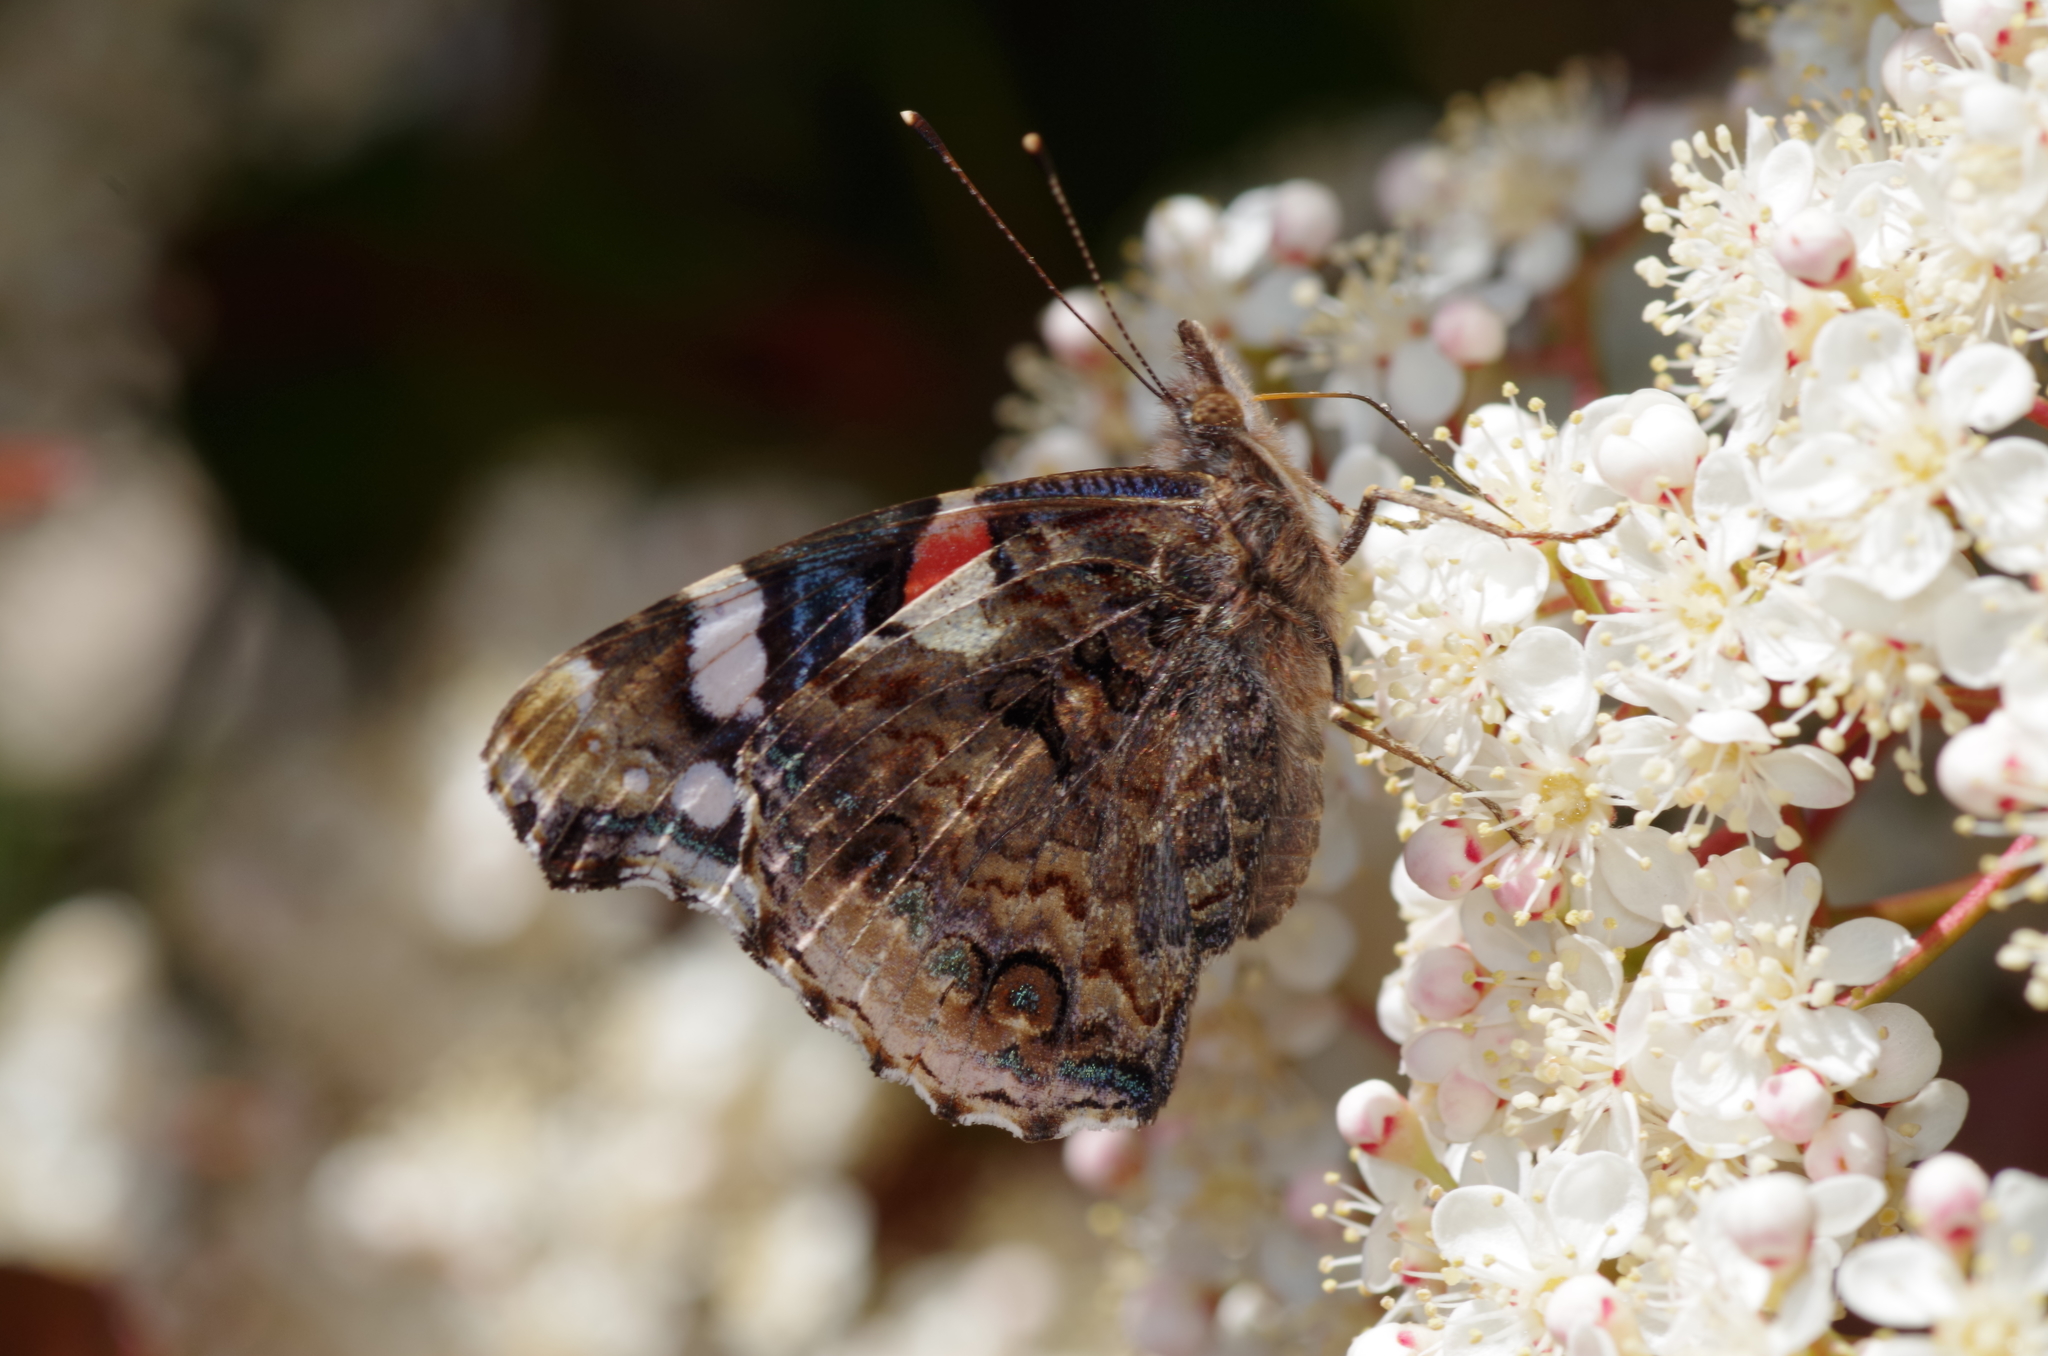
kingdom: Animalia
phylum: Arthropoda
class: Insecta
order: Lepidoptera
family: Nymphalidae
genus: Vanessa
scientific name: Vanessa atalanta
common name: Red admiral
